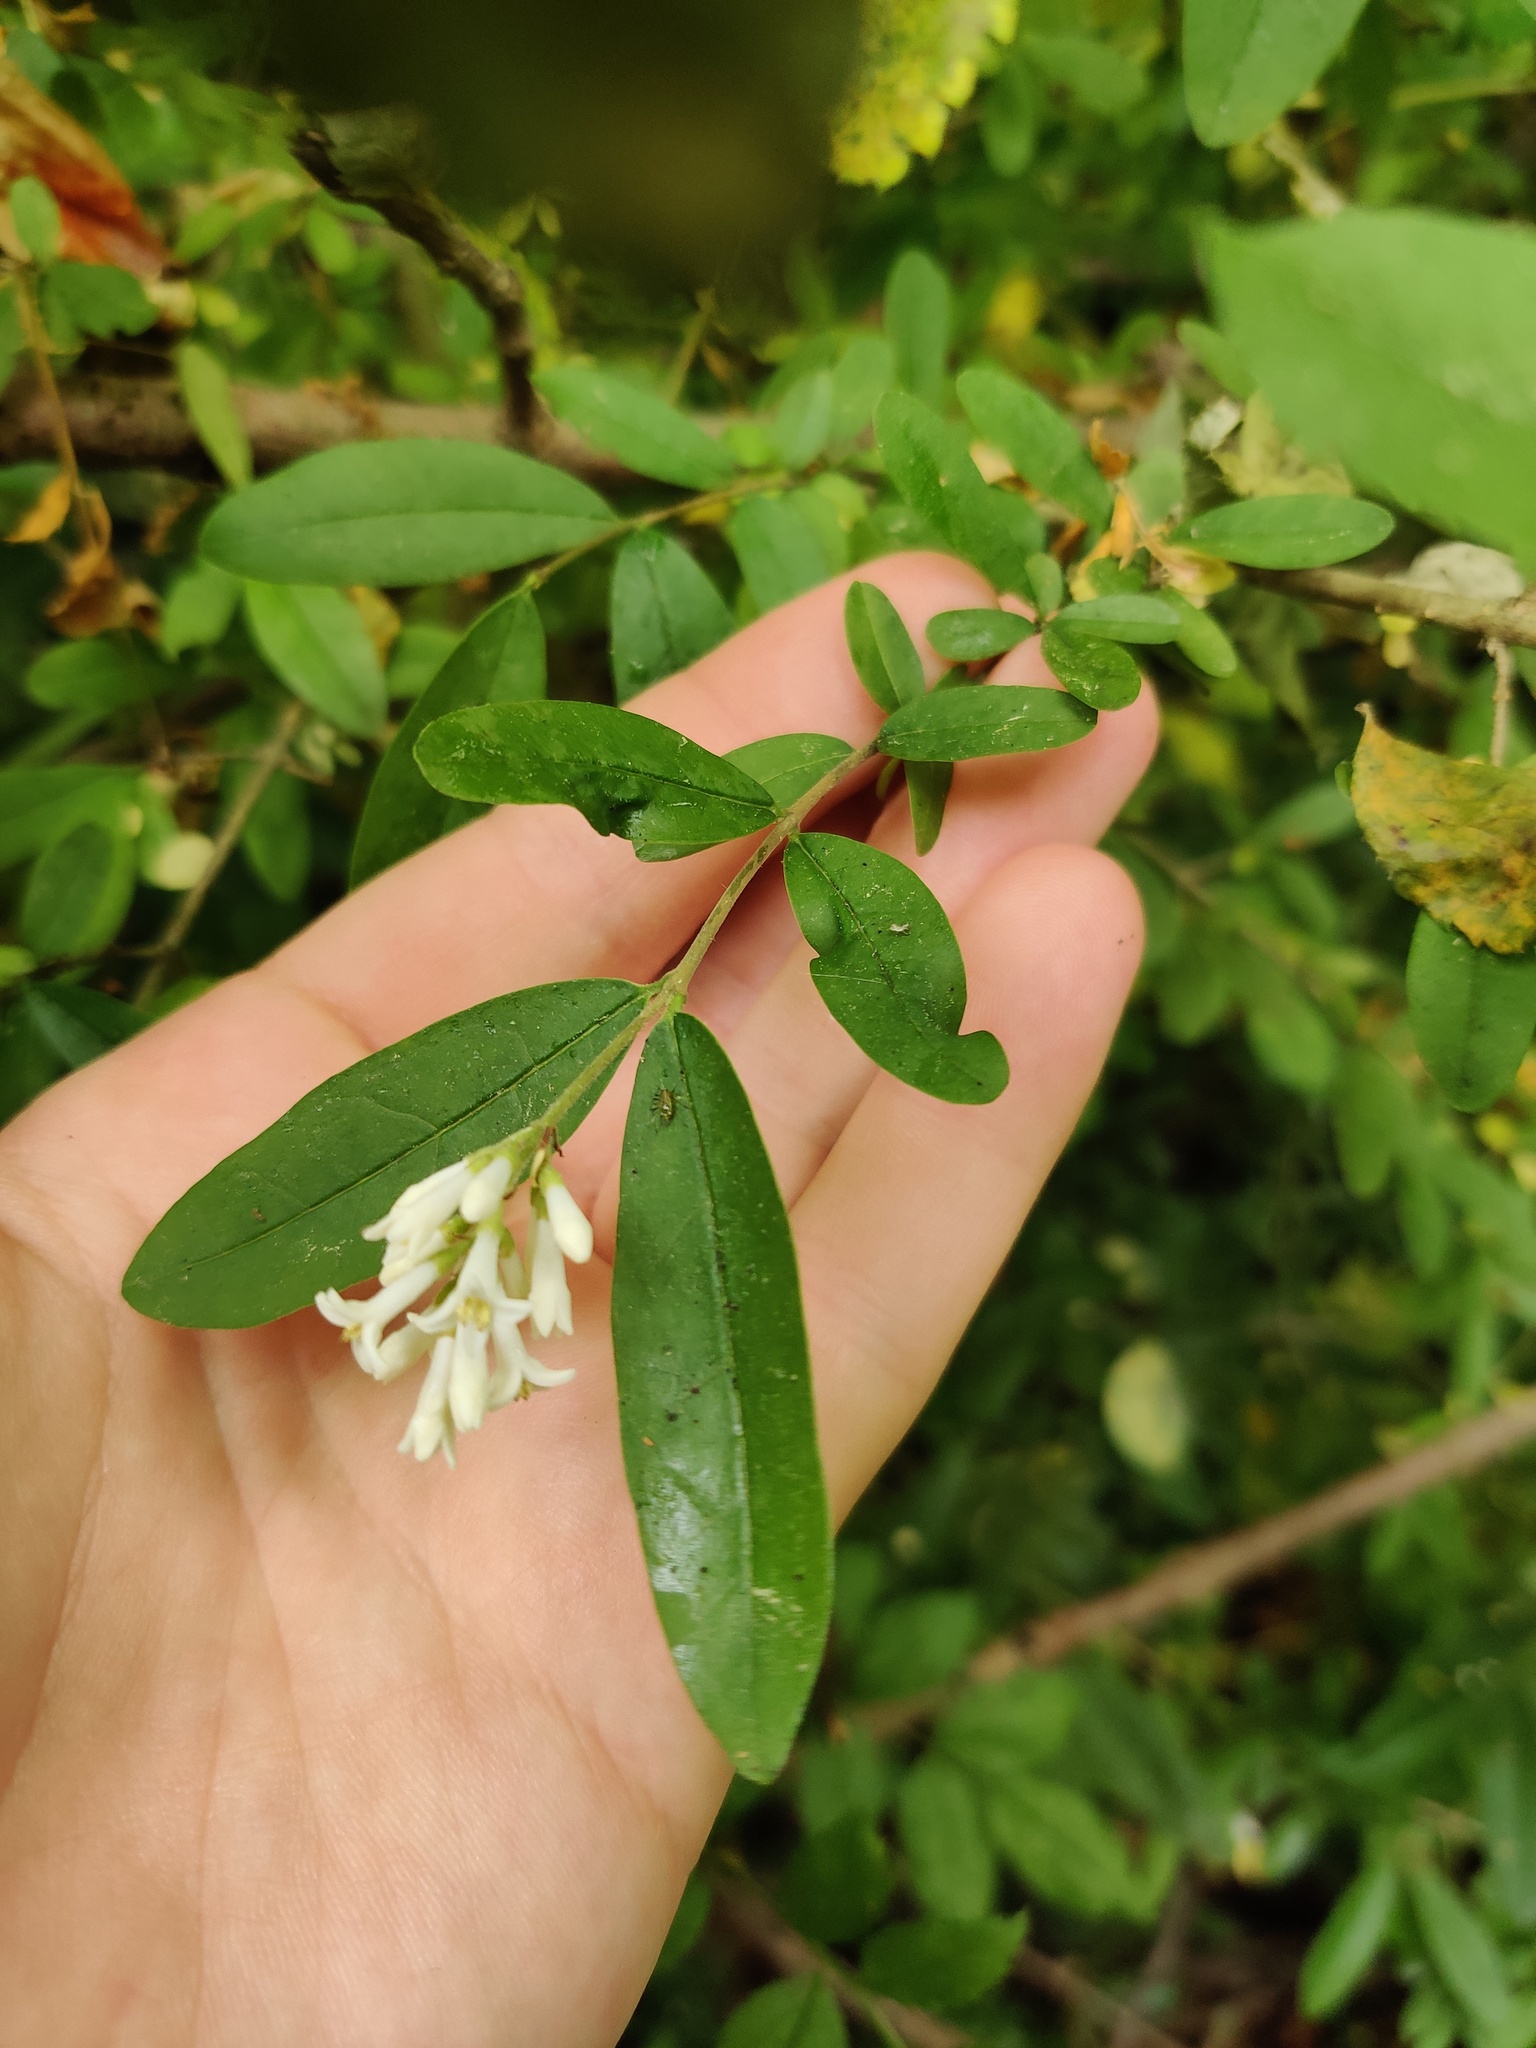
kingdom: Plantae
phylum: Tracheophyta
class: Magnoliopsida
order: Lamiales
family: Oleaceae
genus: Ligustrum
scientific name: Ligustrum obtusifolium
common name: Border privet
